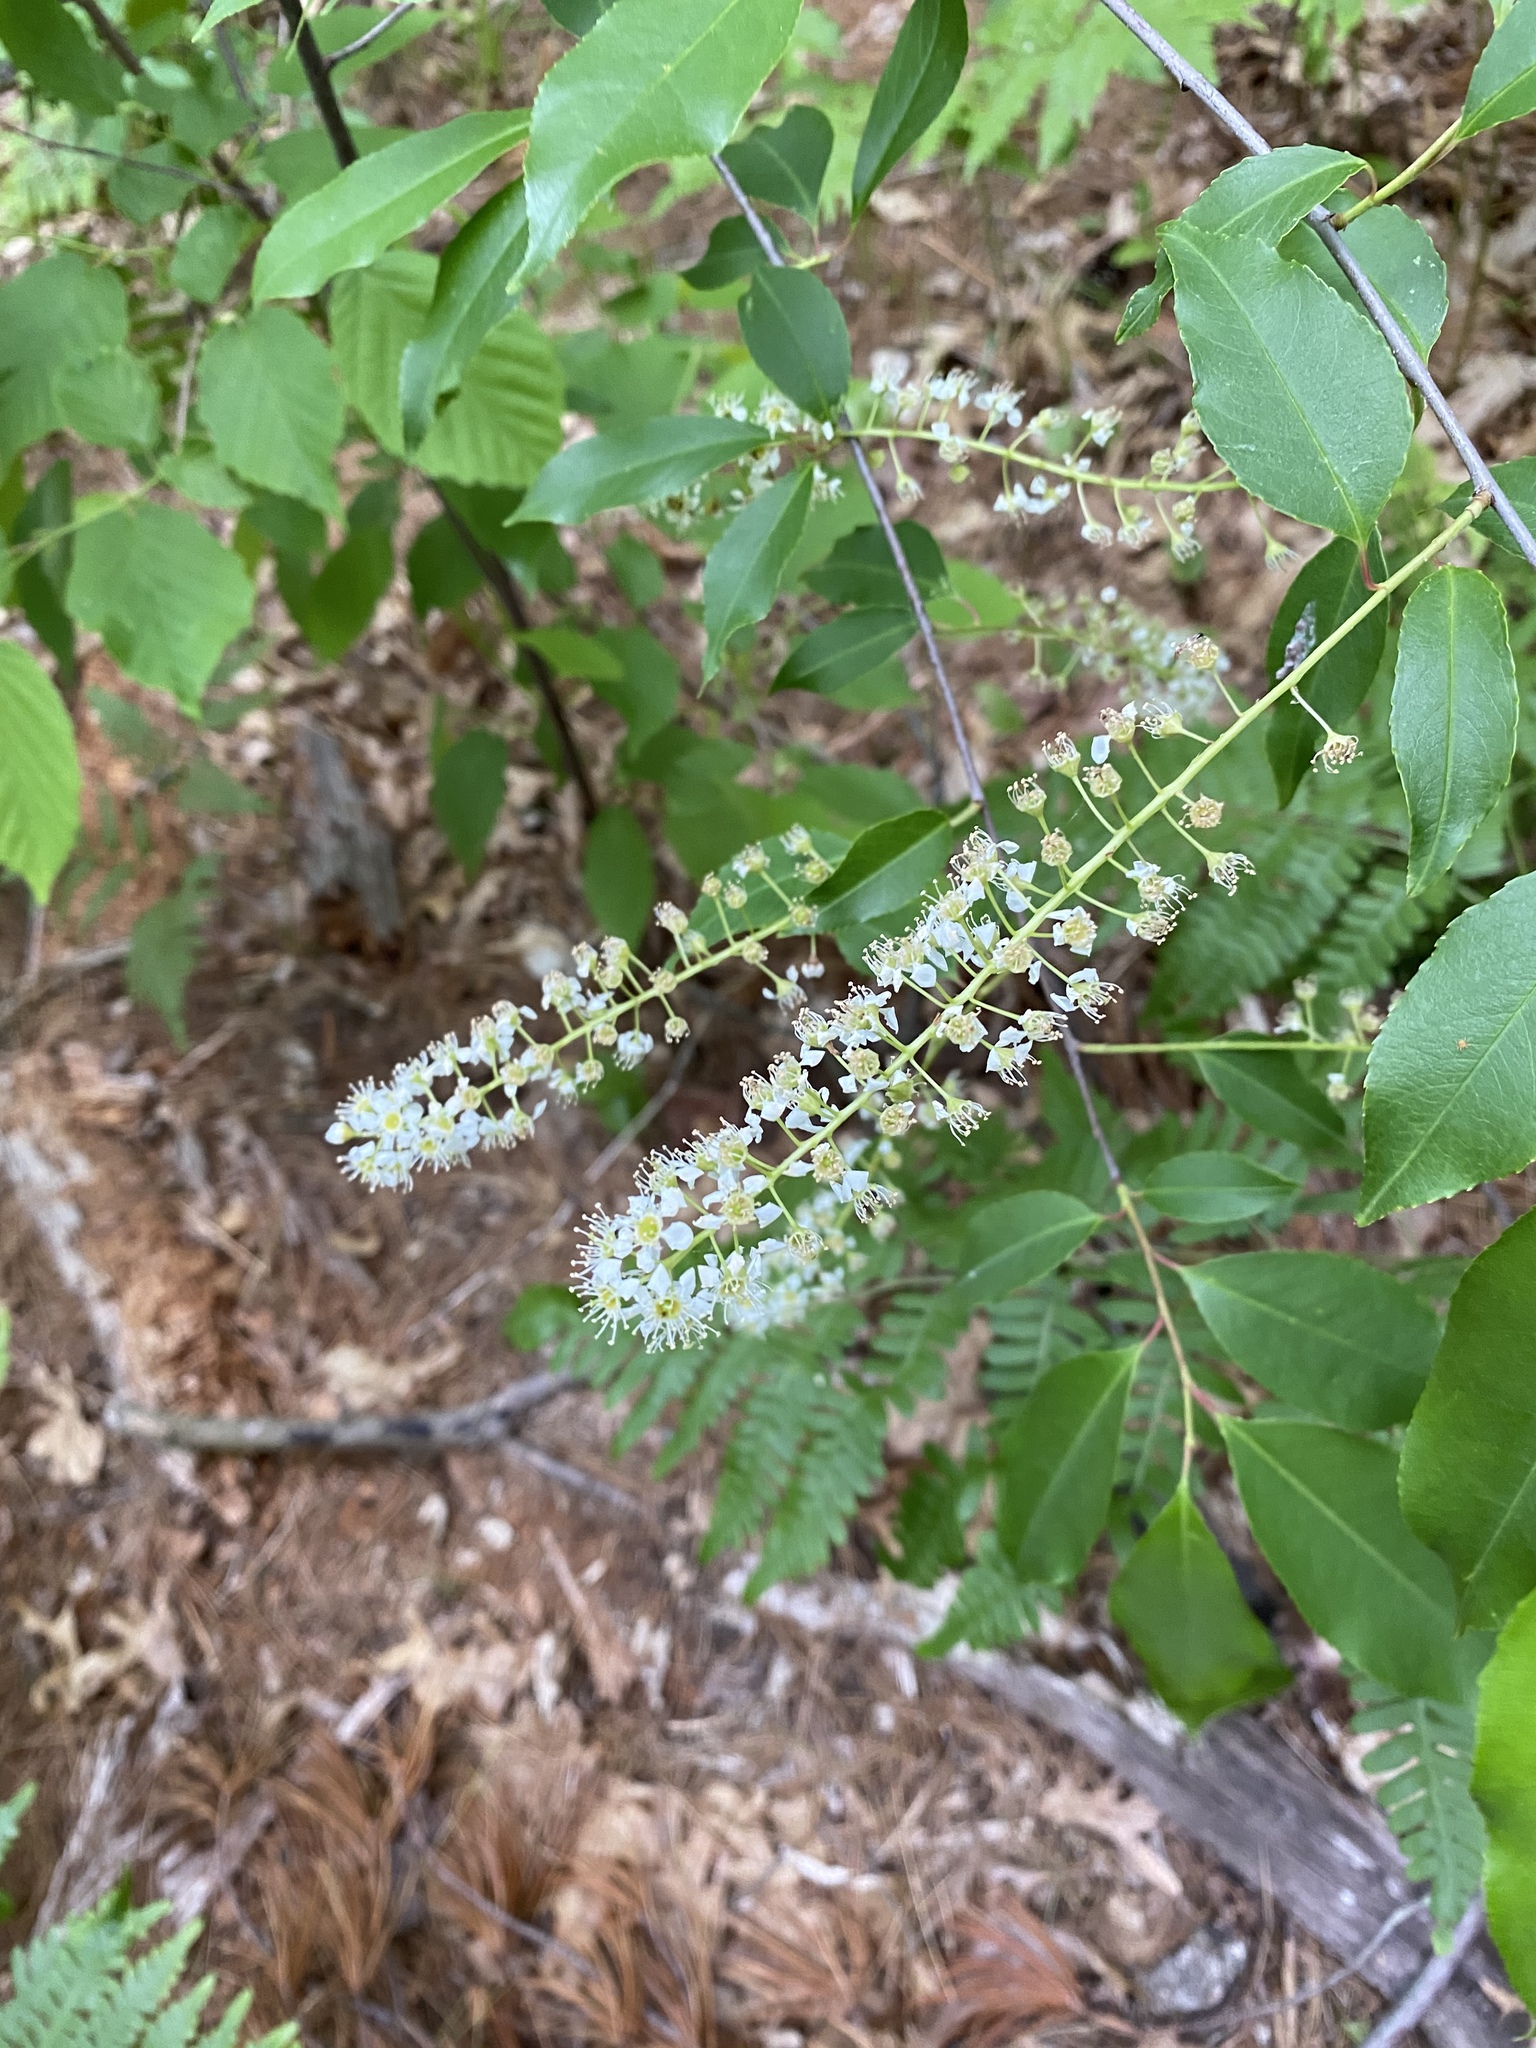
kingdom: Plantae
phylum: Tracheophyta
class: Magnoliopsida
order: Rosales
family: Rosaceae
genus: Prunus
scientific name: Prunus serotina
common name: Black cherry
